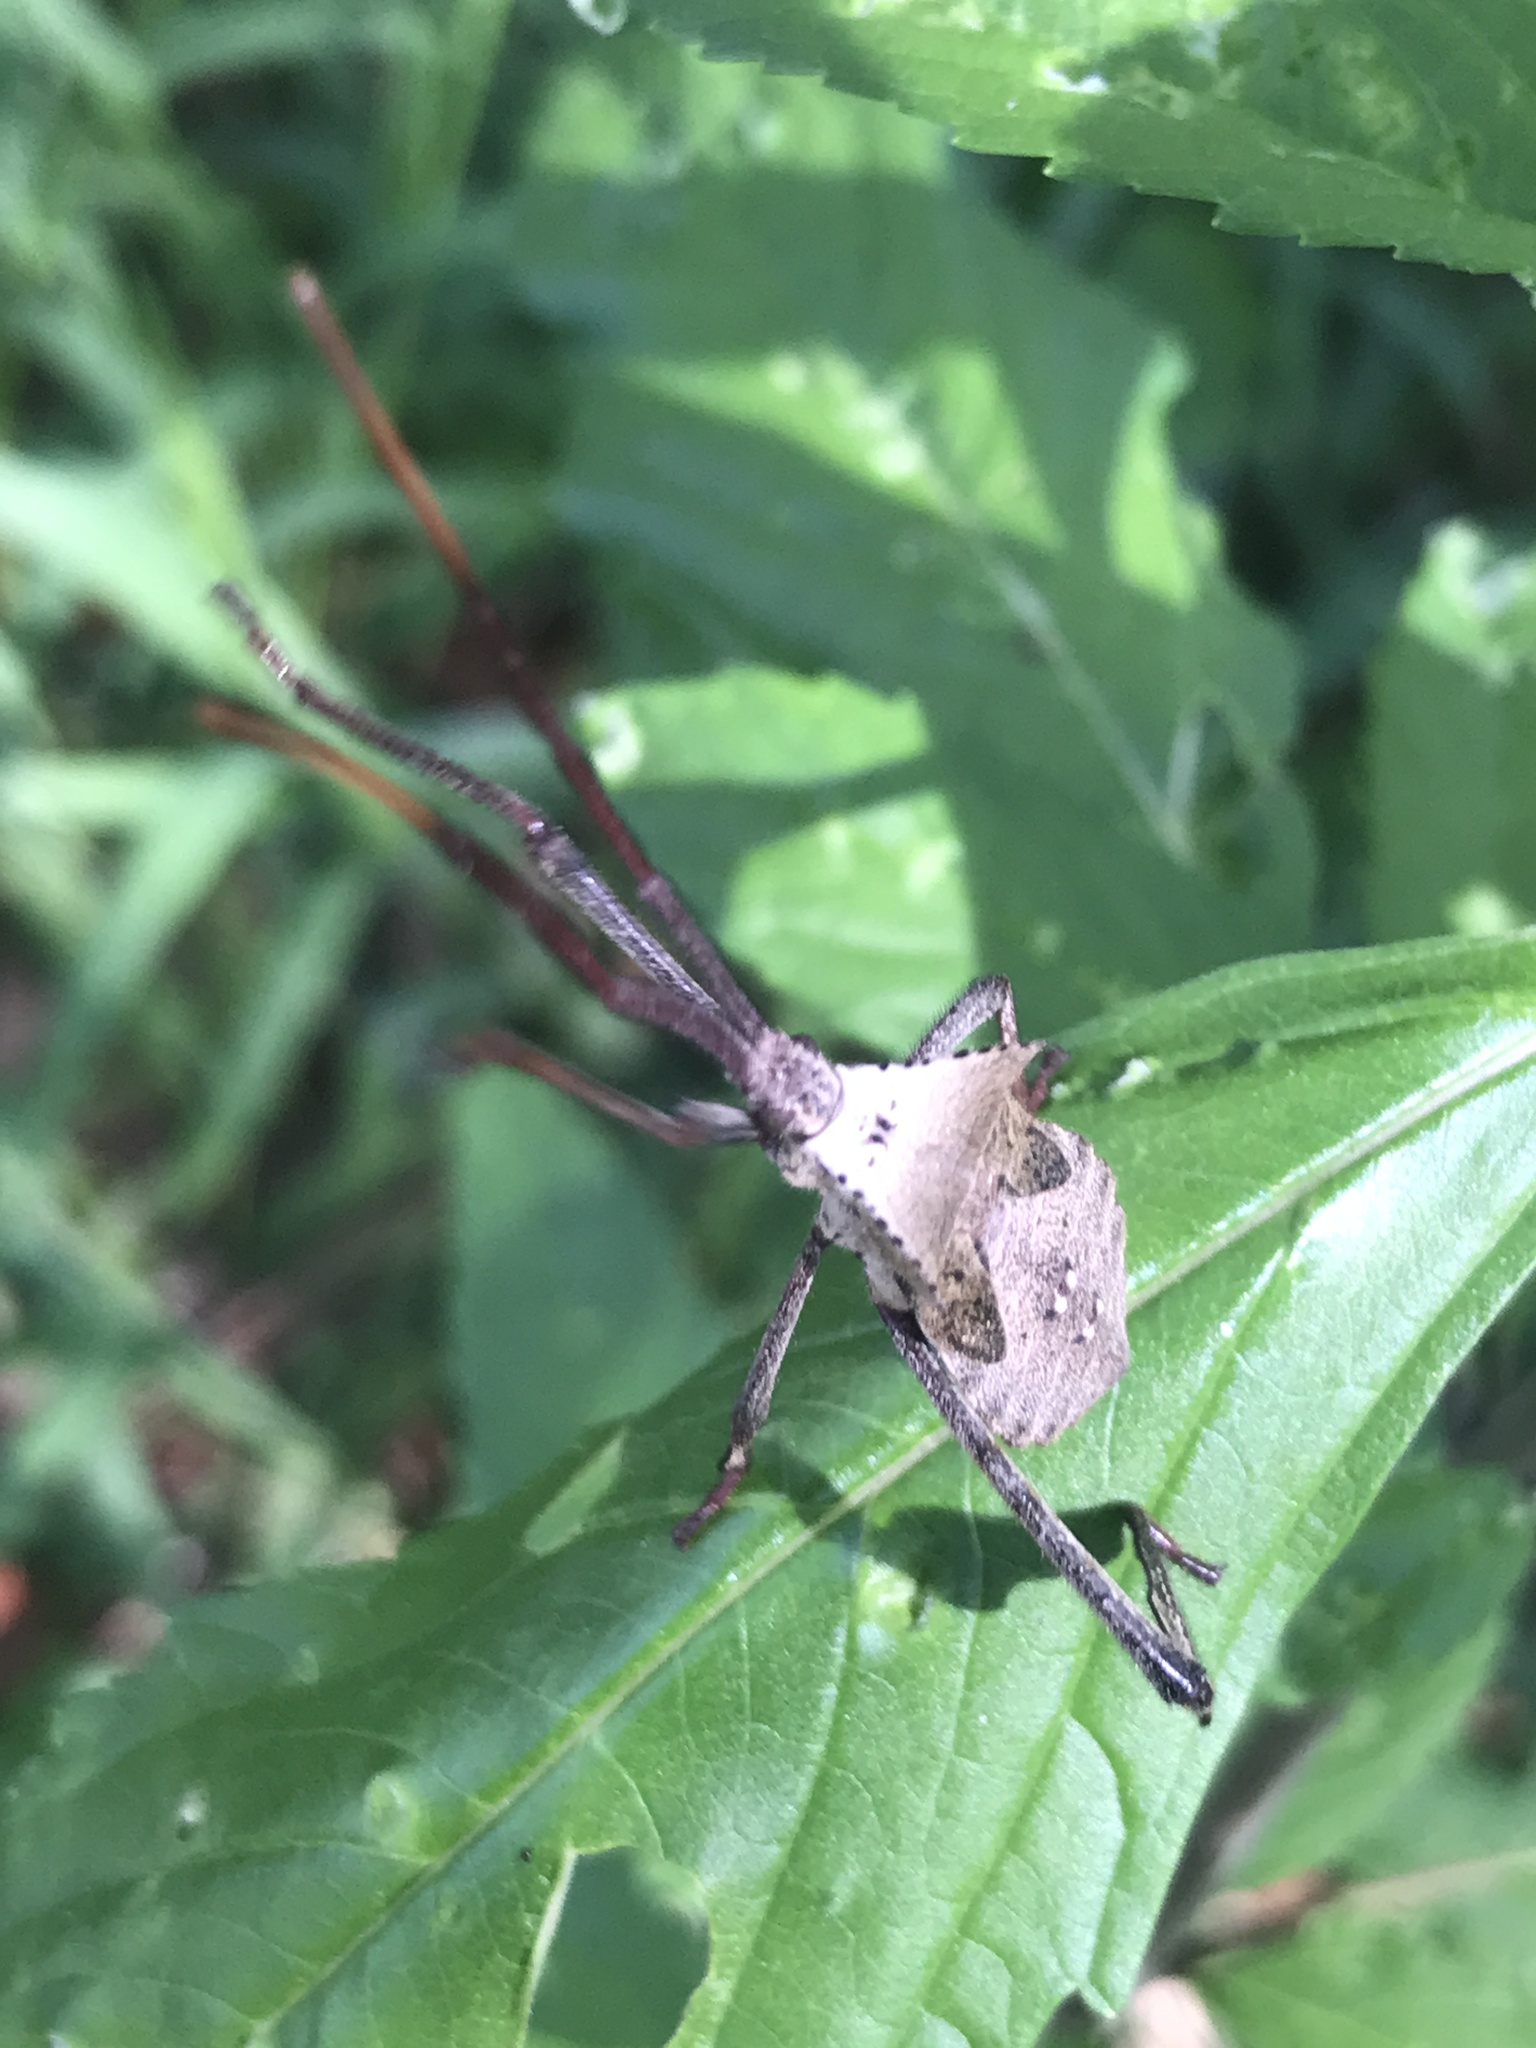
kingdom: Animalia
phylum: Arthropoda
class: Insecta
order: Hemiptera
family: Coreidae
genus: Acanthocephala
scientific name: Acanthocephala declivis
